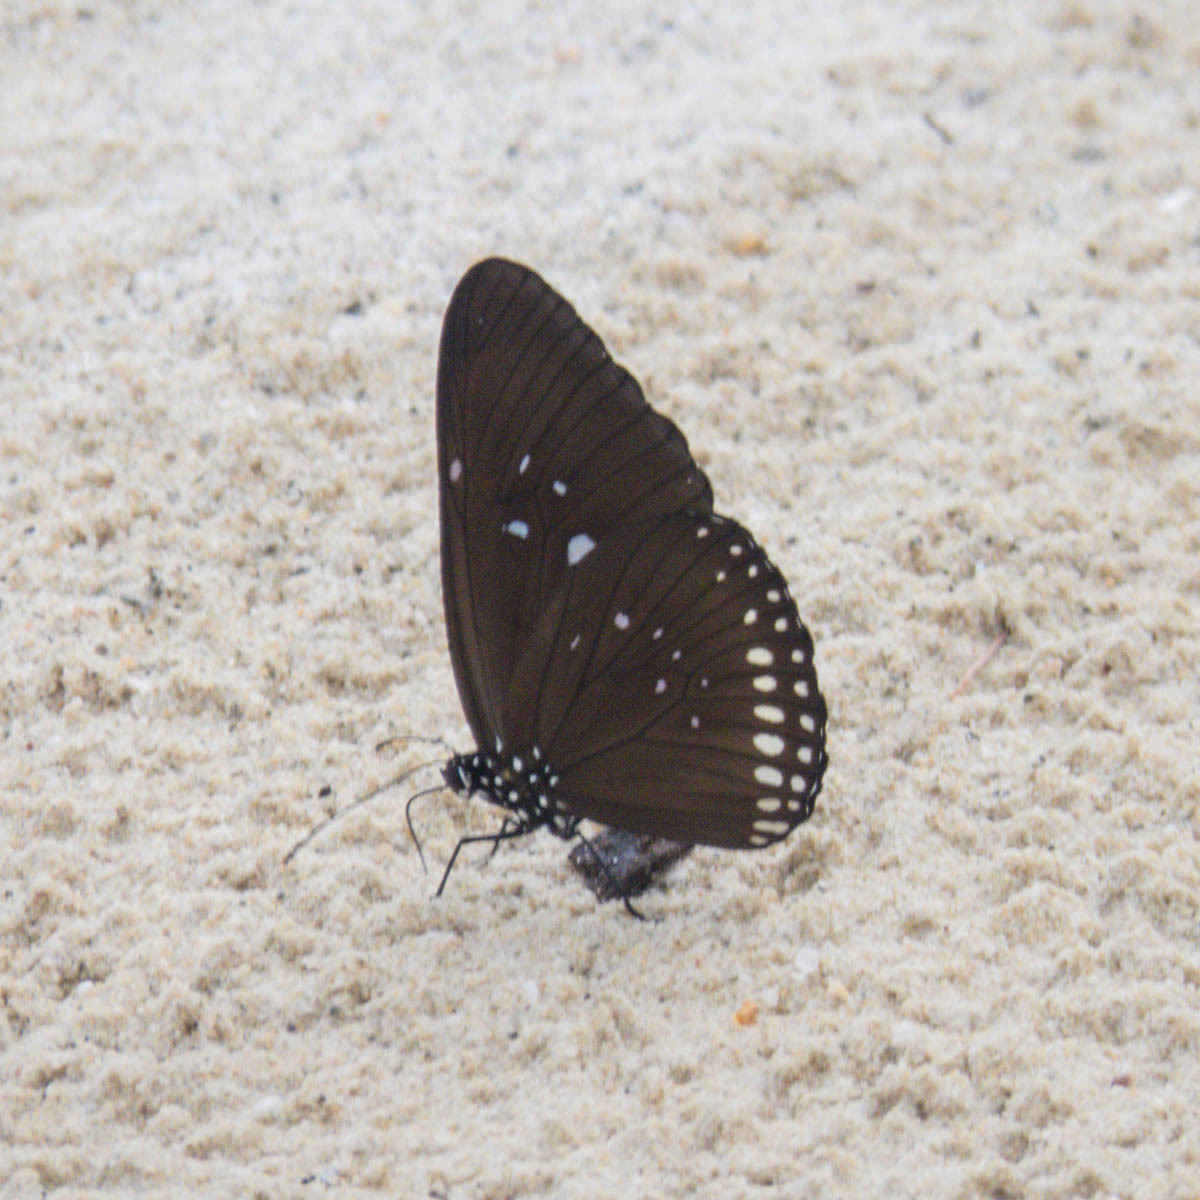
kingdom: Animalia
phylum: Arthropoda
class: Insecta
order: Lepidoptera
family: Nymphalidae
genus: Euploea
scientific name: Euploea modesta
